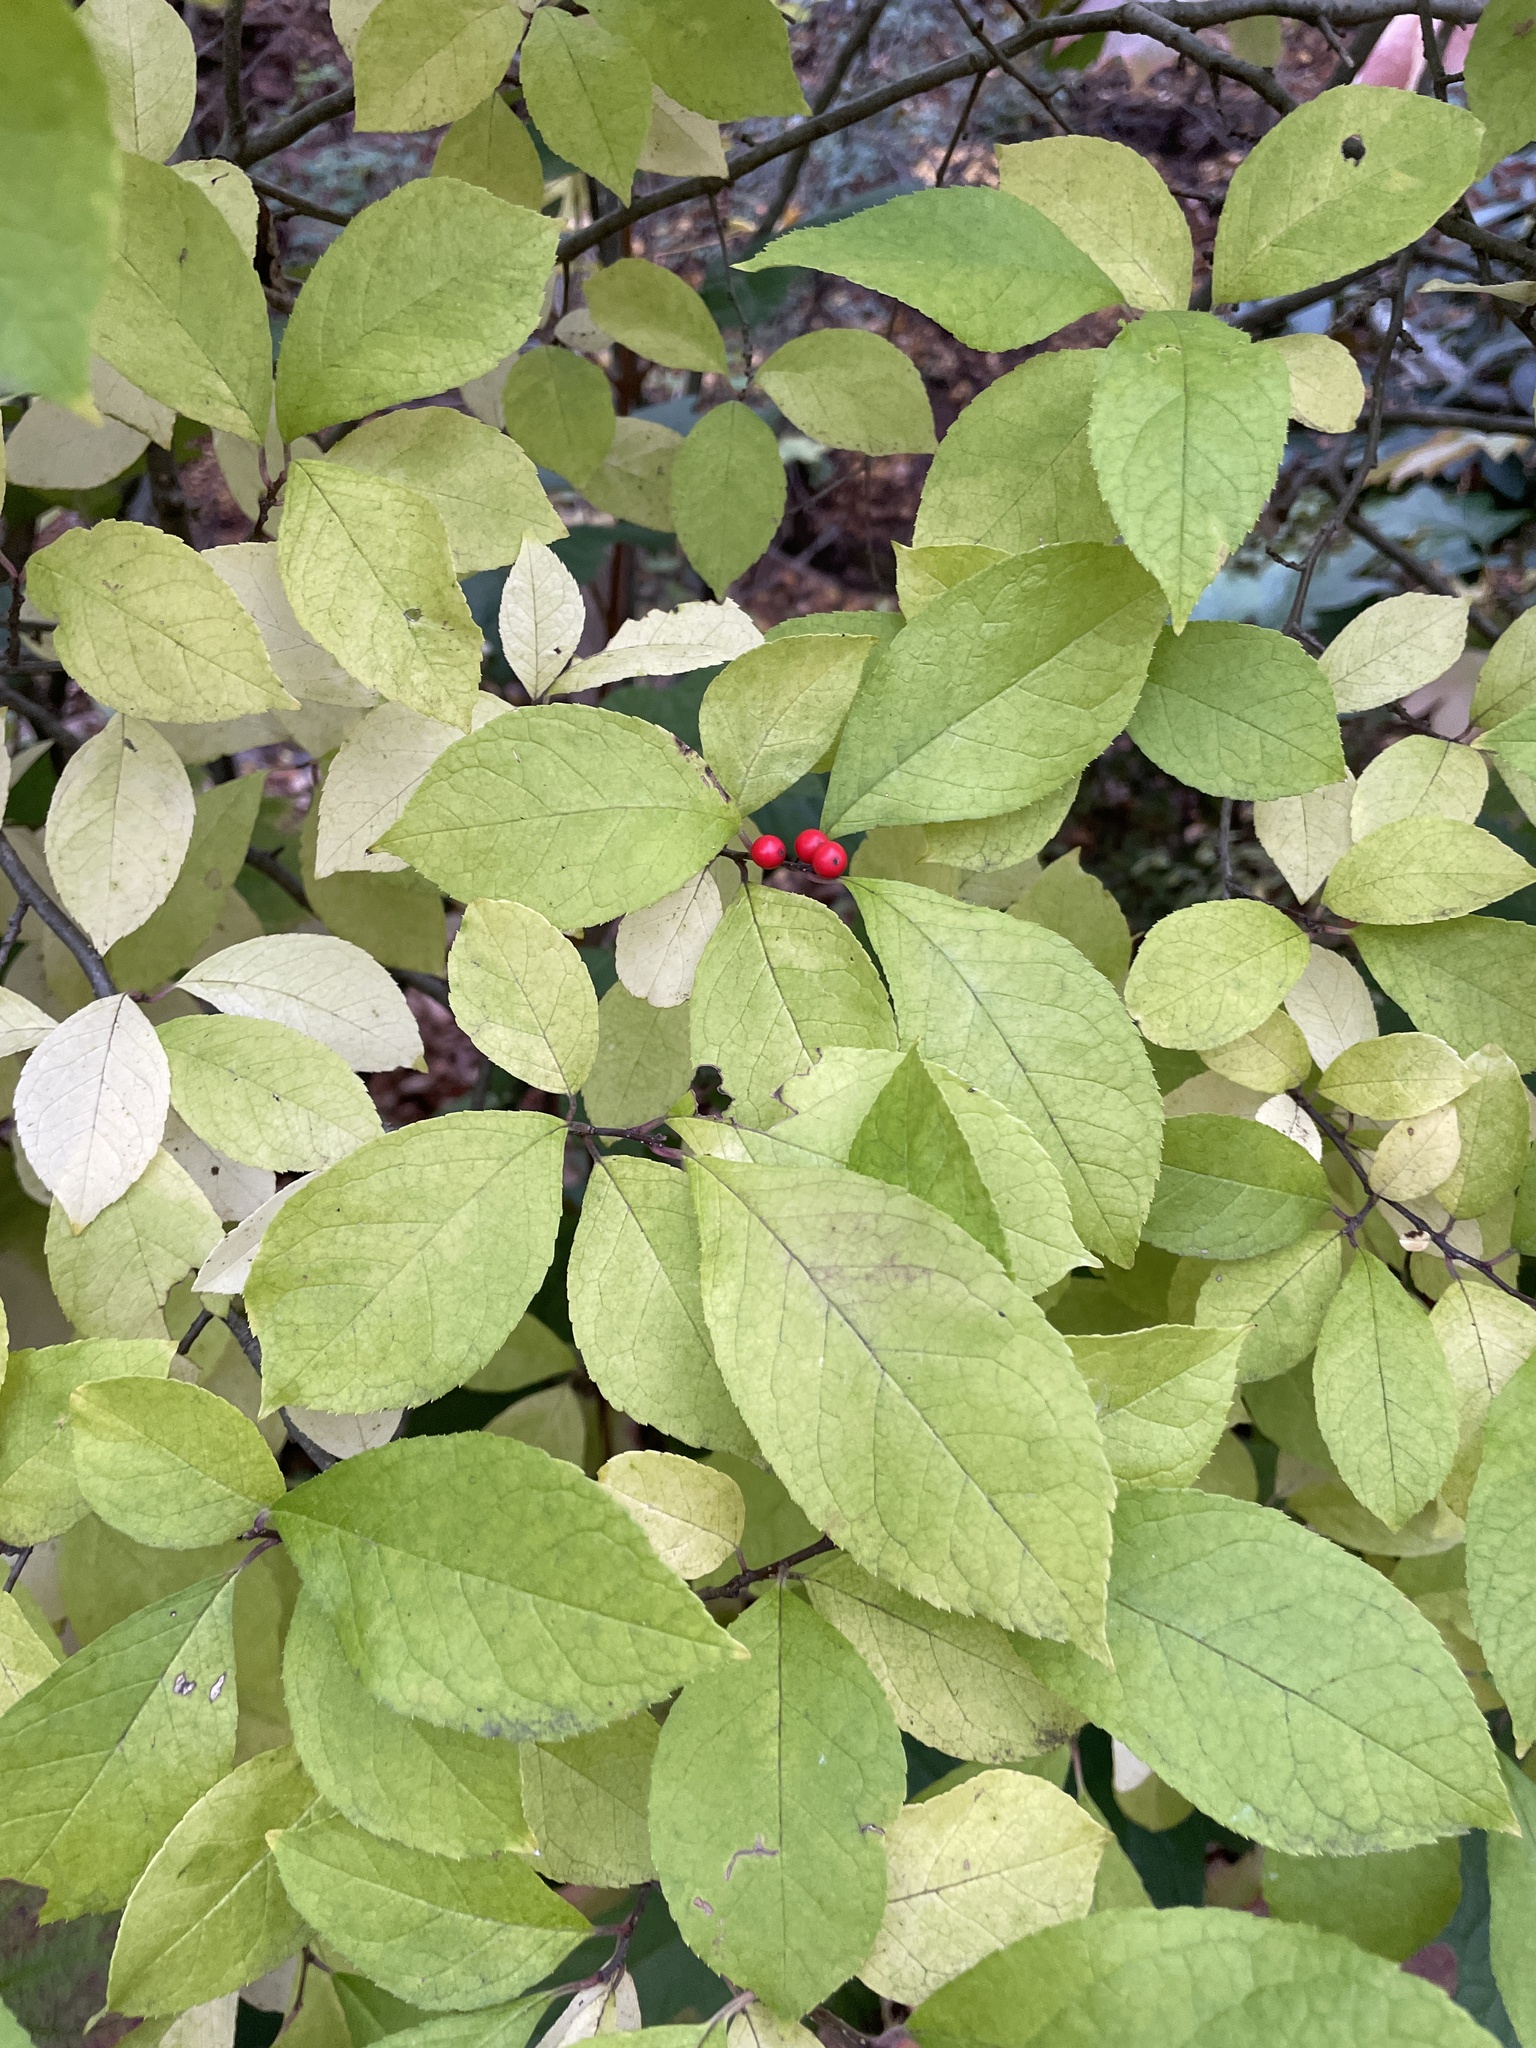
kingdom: Plantae
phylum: Tracheophyta
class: Magnoliopsida
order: Aquifoliales
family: Aquifoliaceae
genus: Ilex
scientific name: Ilex verticillata
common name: Virginia winterberry
